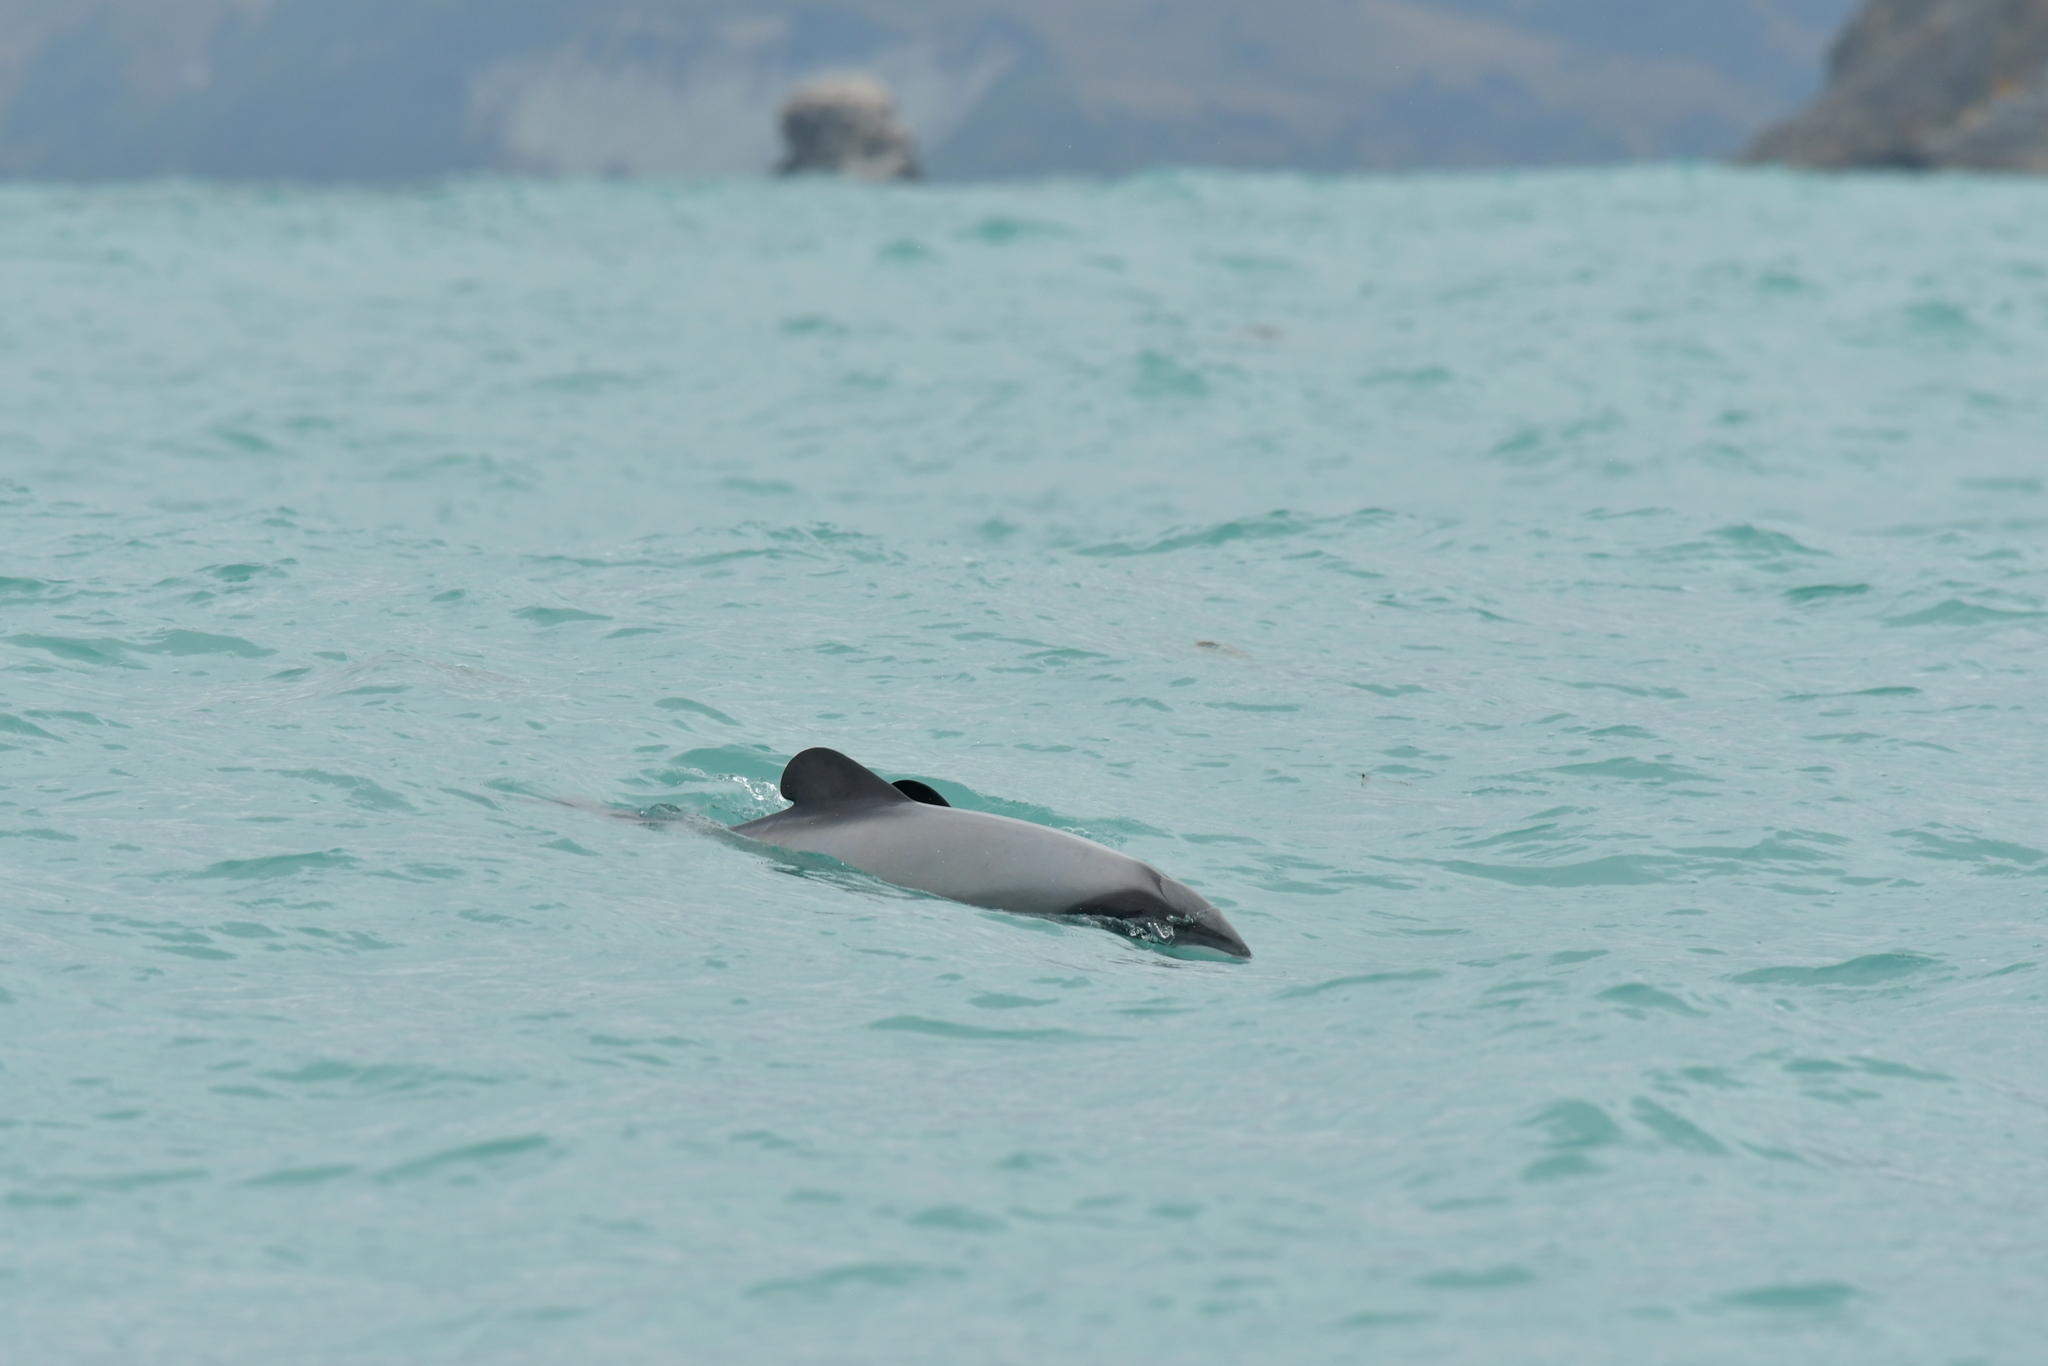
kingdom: Animalia
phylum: Chordata
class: Mammalia
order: Cetacea
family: Delphinidae
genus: Cephalorhynchus
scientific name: Cephalorhynchus hectori
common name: Hector's dolphin
